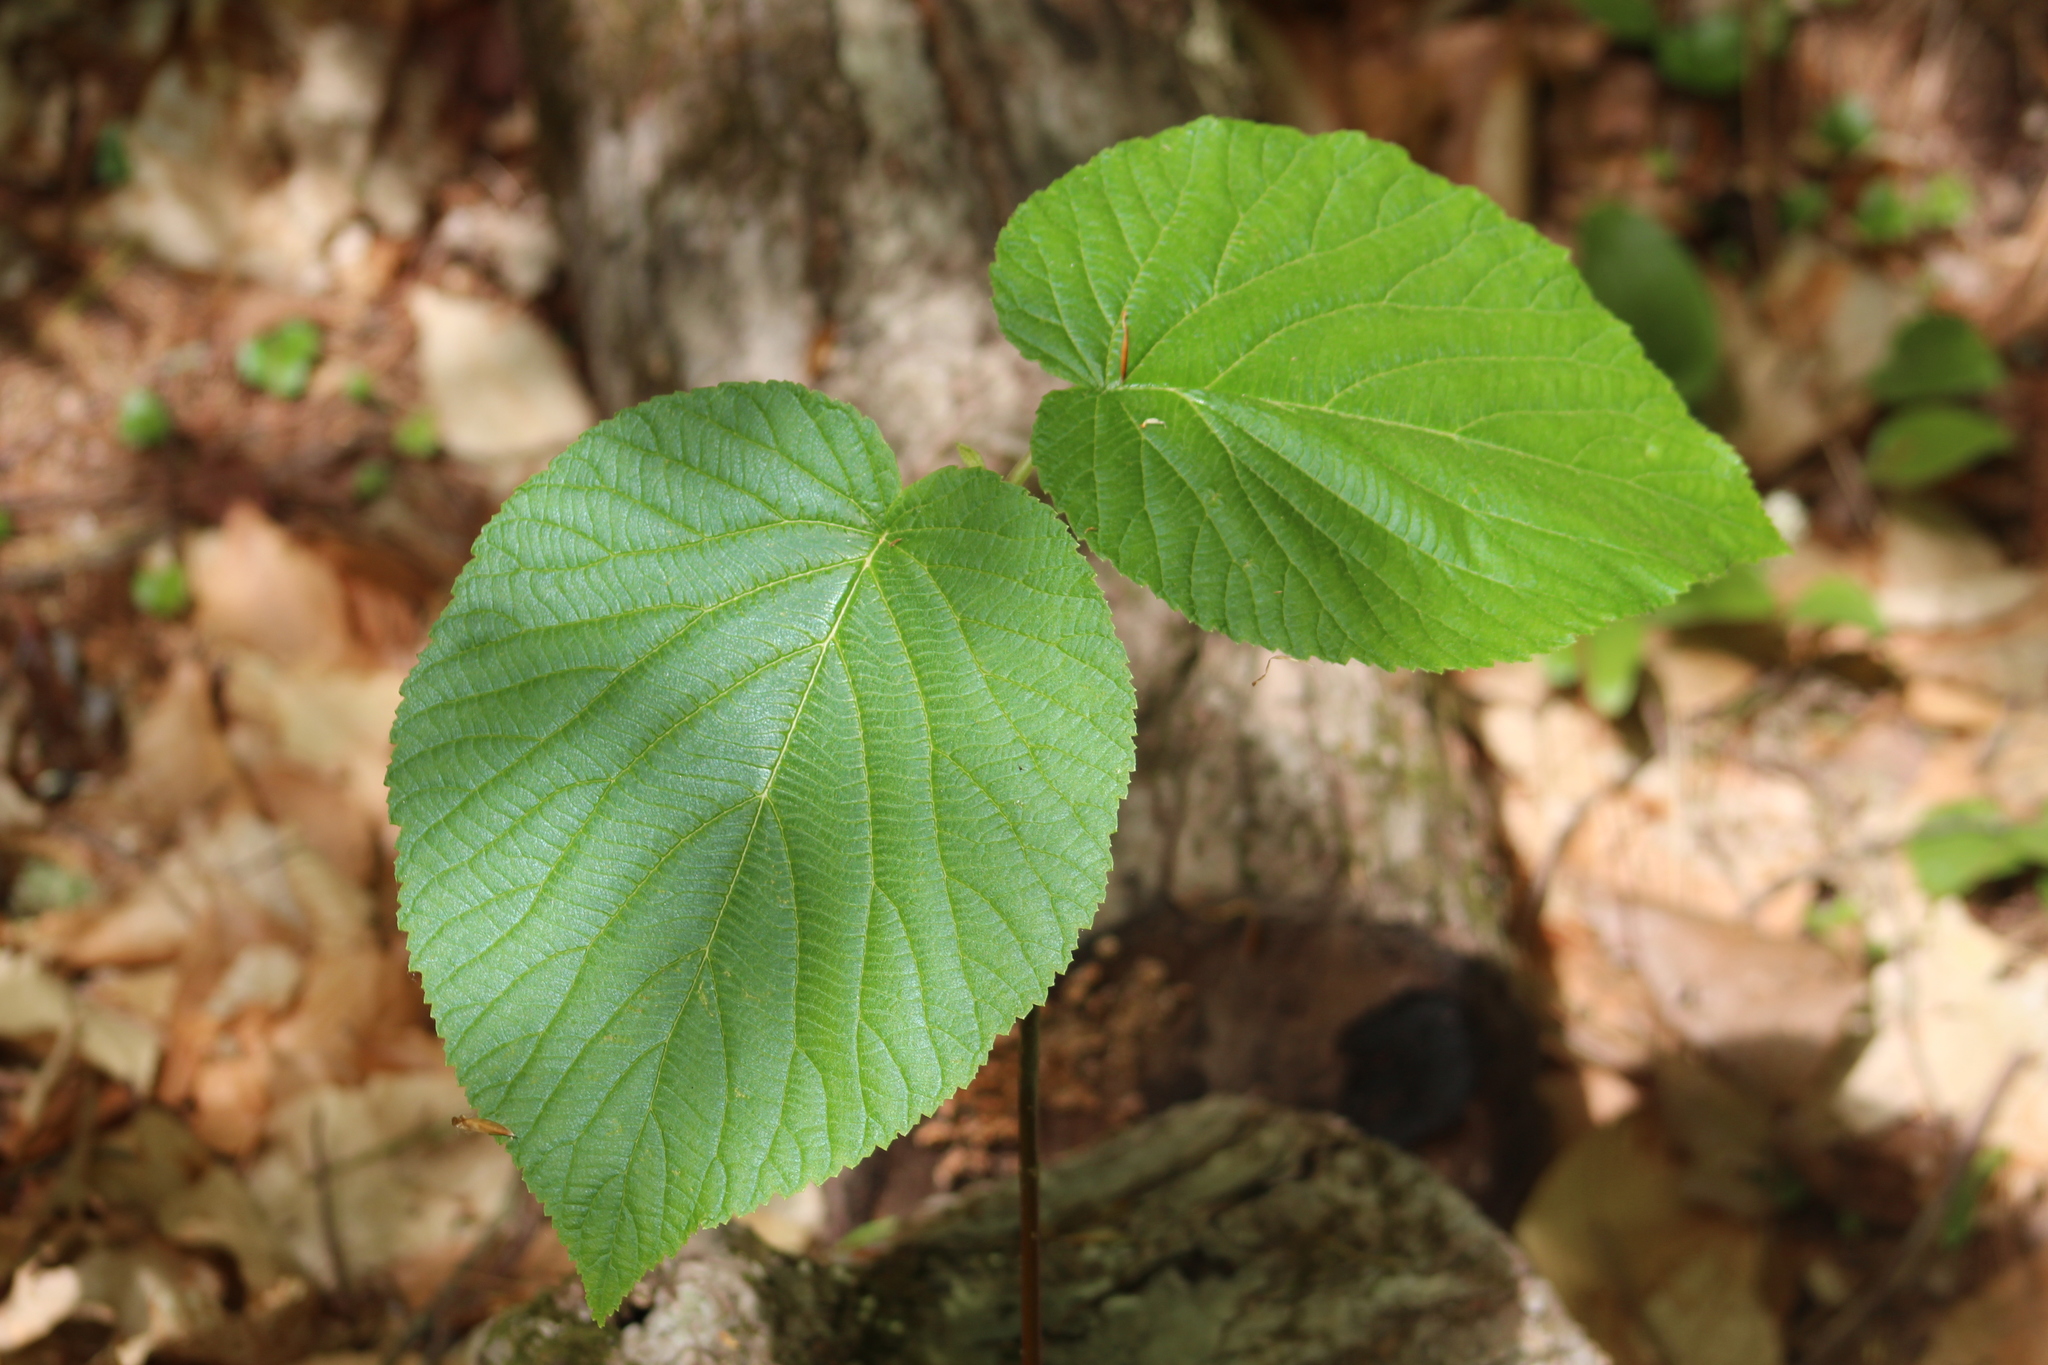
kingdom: Plantae
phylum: Tracheophyta
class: Magnoliopsida
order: Dipsacales
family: Viburnaceae
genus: Viburnum
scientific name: Viburnum lantanoides
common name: Hobblebush
